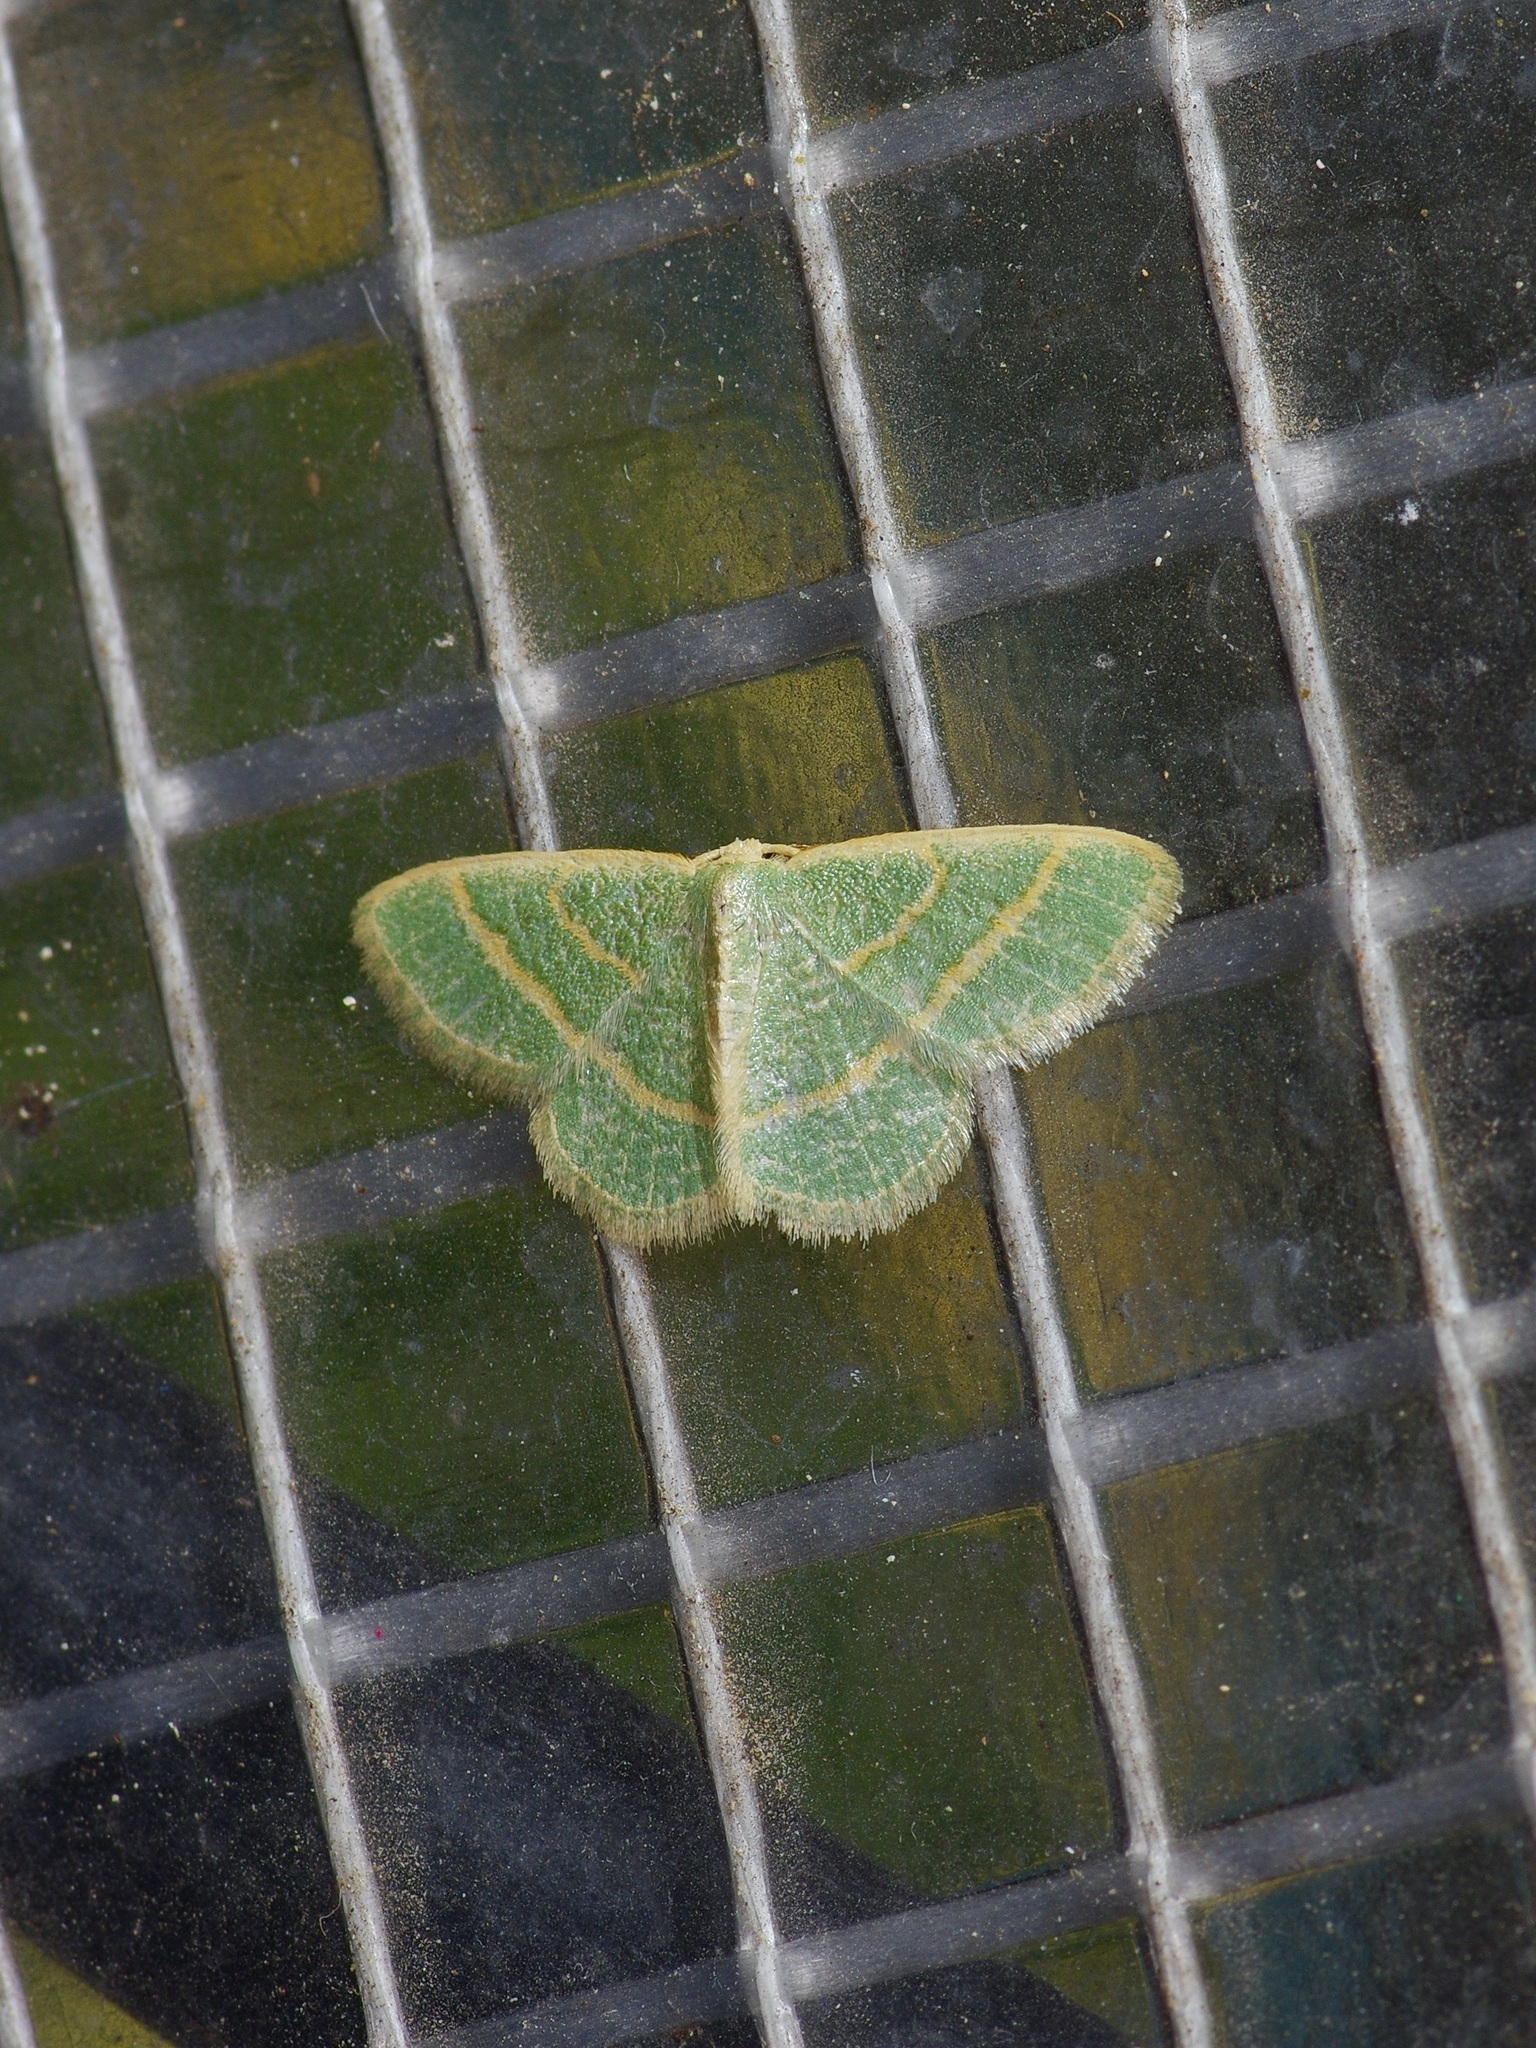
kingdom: Animalia
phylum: Arthropoda
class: Insecta
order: Lepidoptera
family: Geometridae
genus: Chlorochlamys
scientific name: Chlorochlamys chloroleucaria
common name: Blackberry looper
